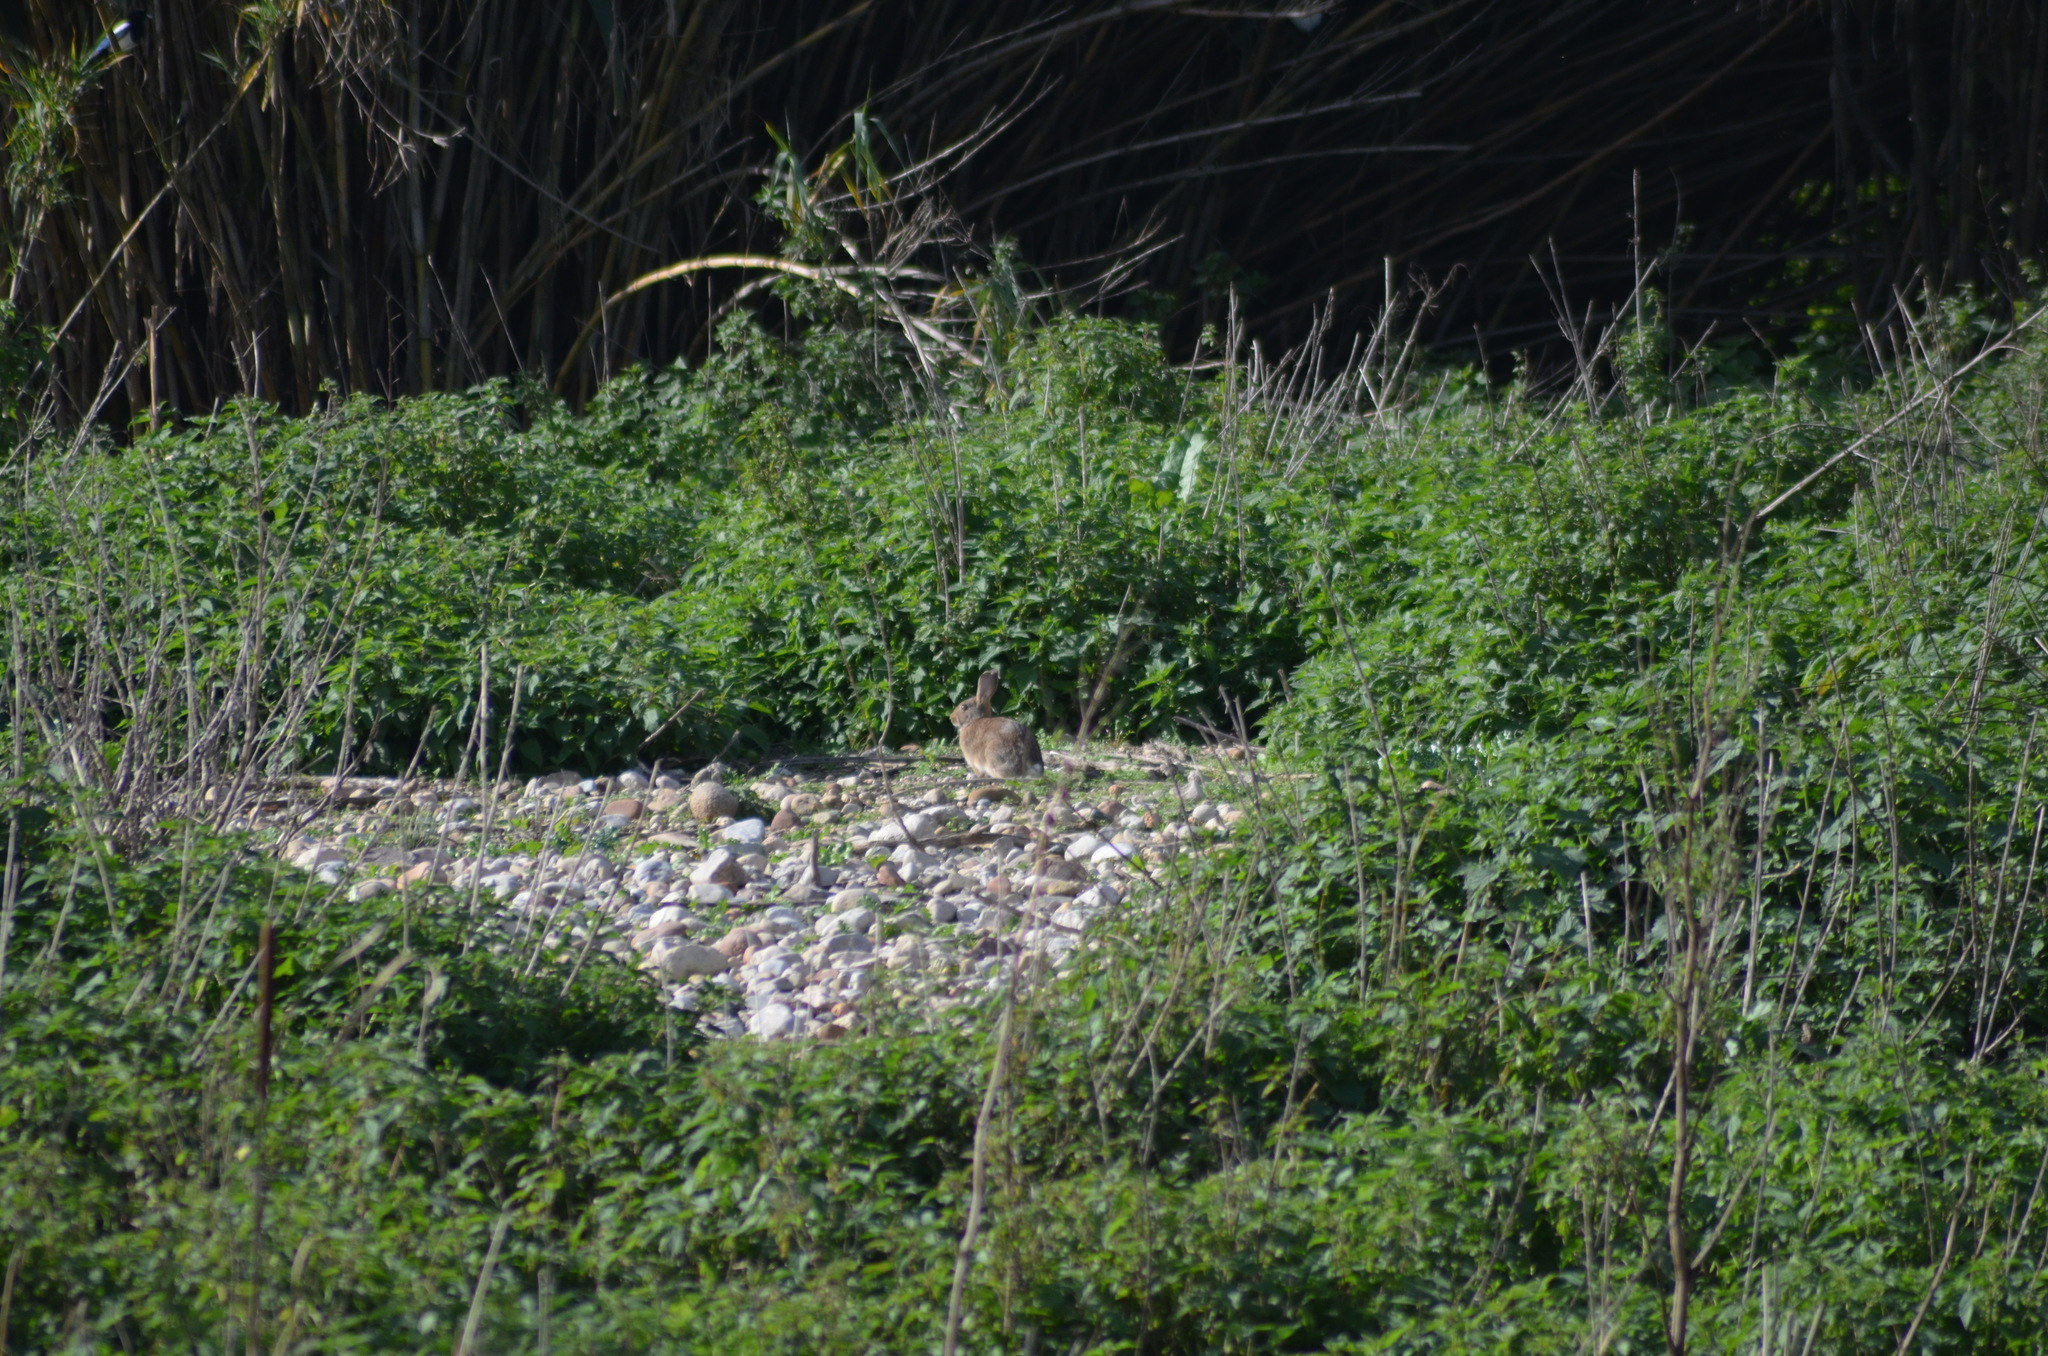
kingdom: Animalia
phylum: Chordata
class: Mammalia
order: Lagomorpha
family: Leporidae
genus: Oryctolagus
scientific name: Oryctolagus cuniculus
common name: European rabbit
